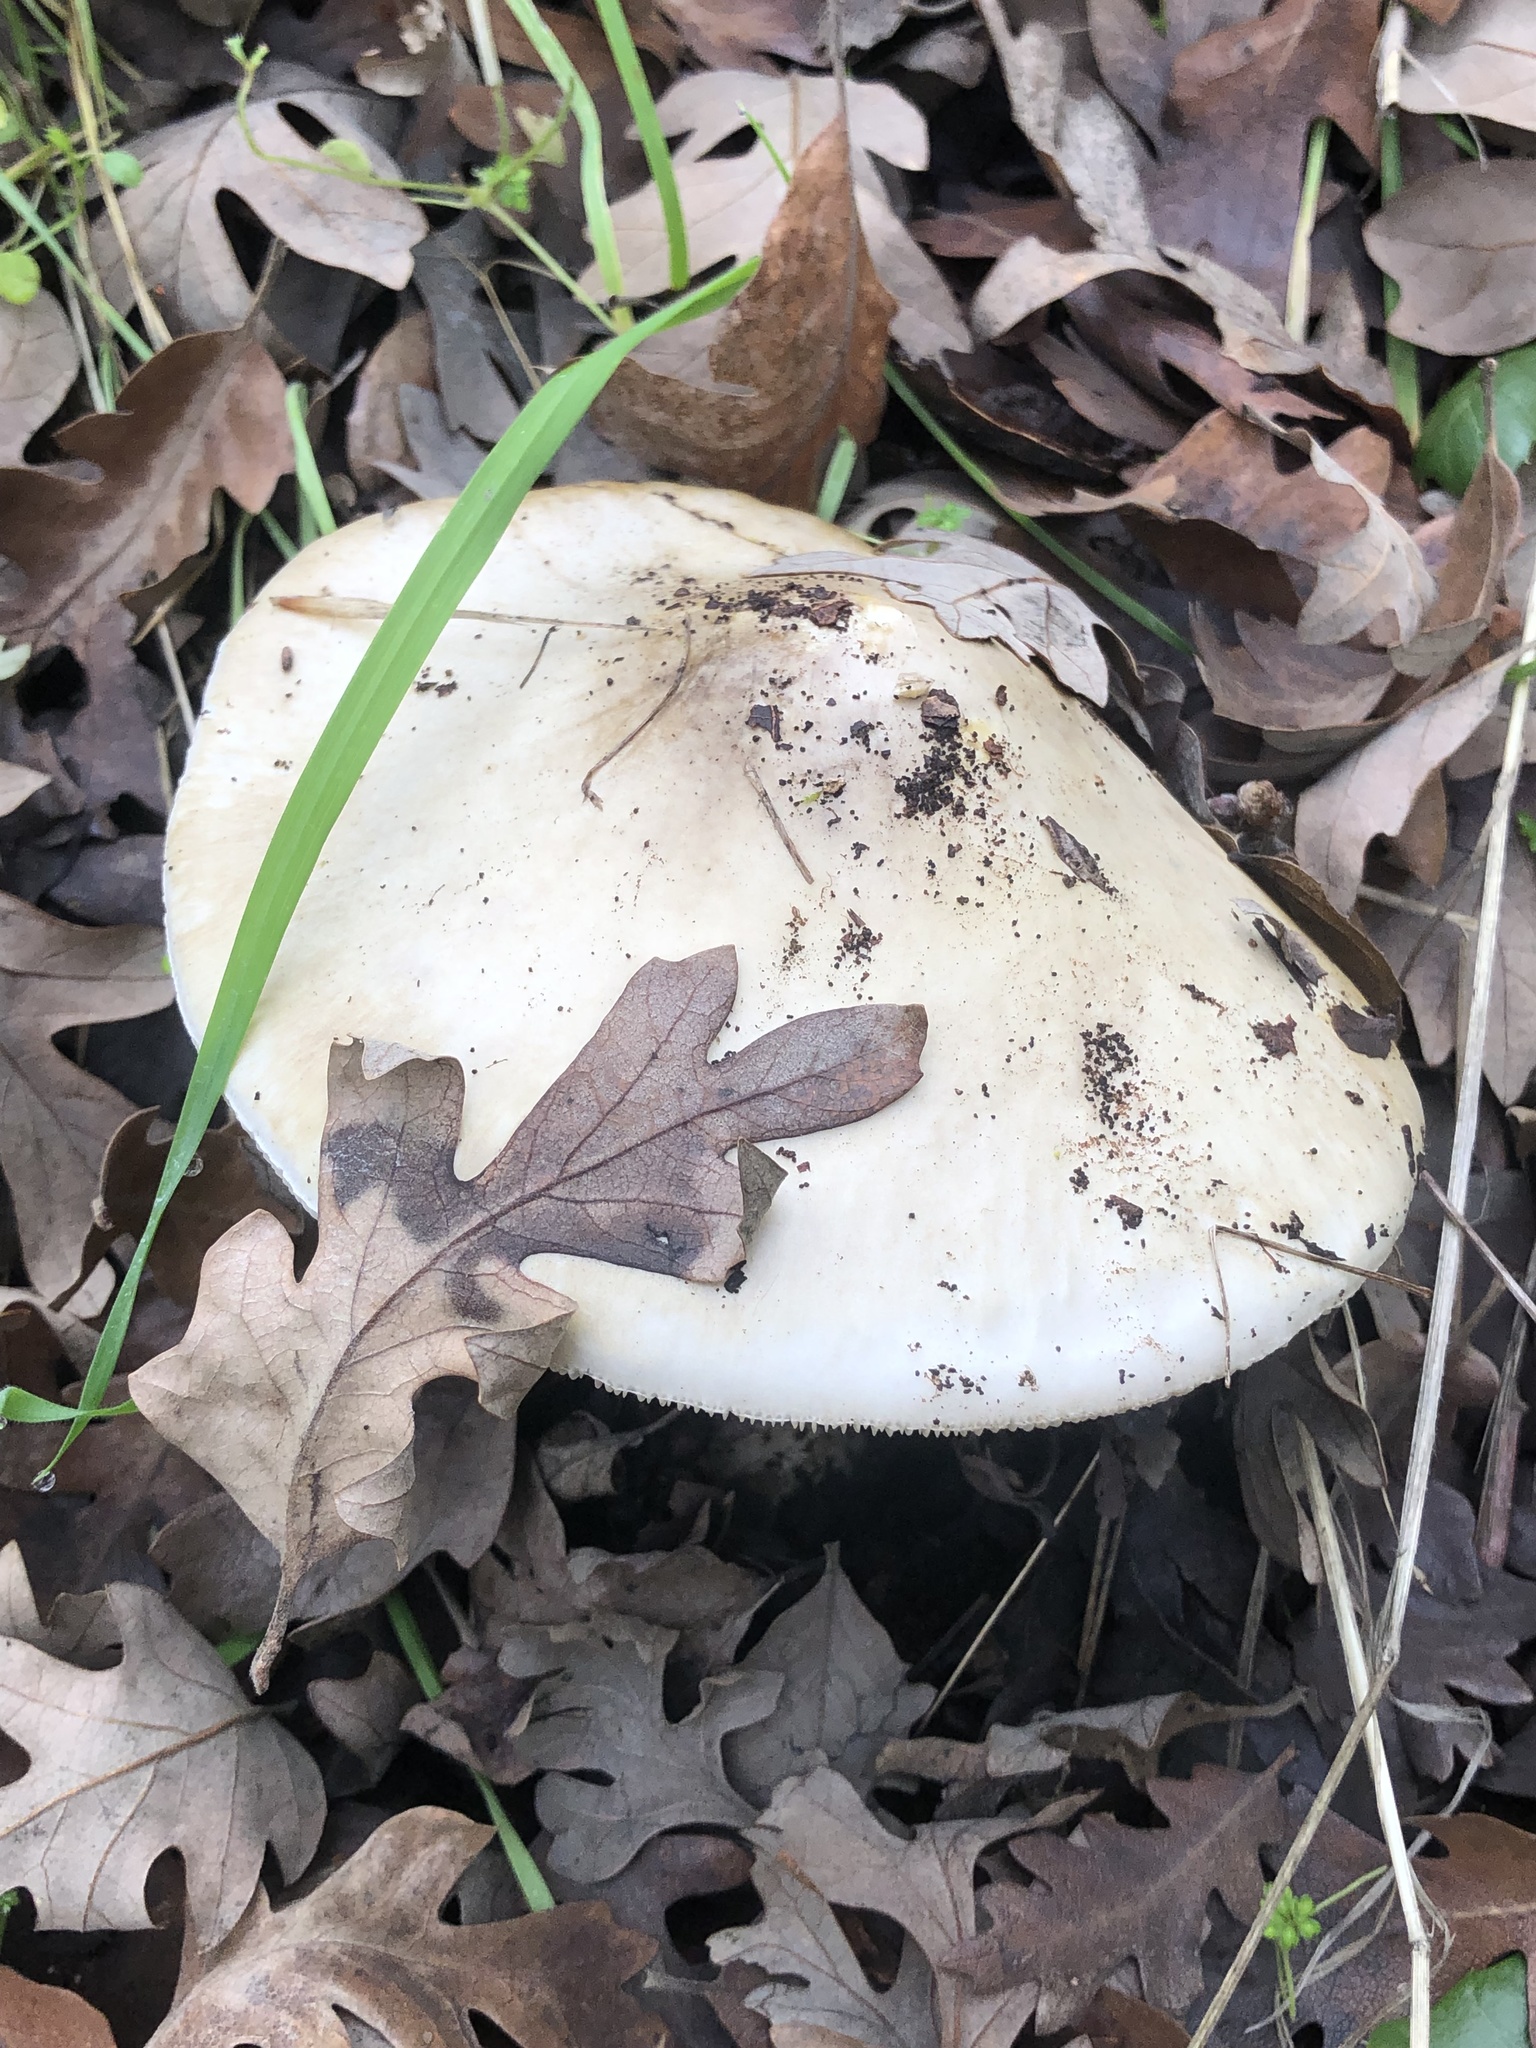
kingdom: Fungi
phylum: Basidiomycota
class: Agaricomycetes
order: Agaricales
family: Amanitaceae
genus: Amanita
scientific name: Amanita phalloides
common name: Death cap
